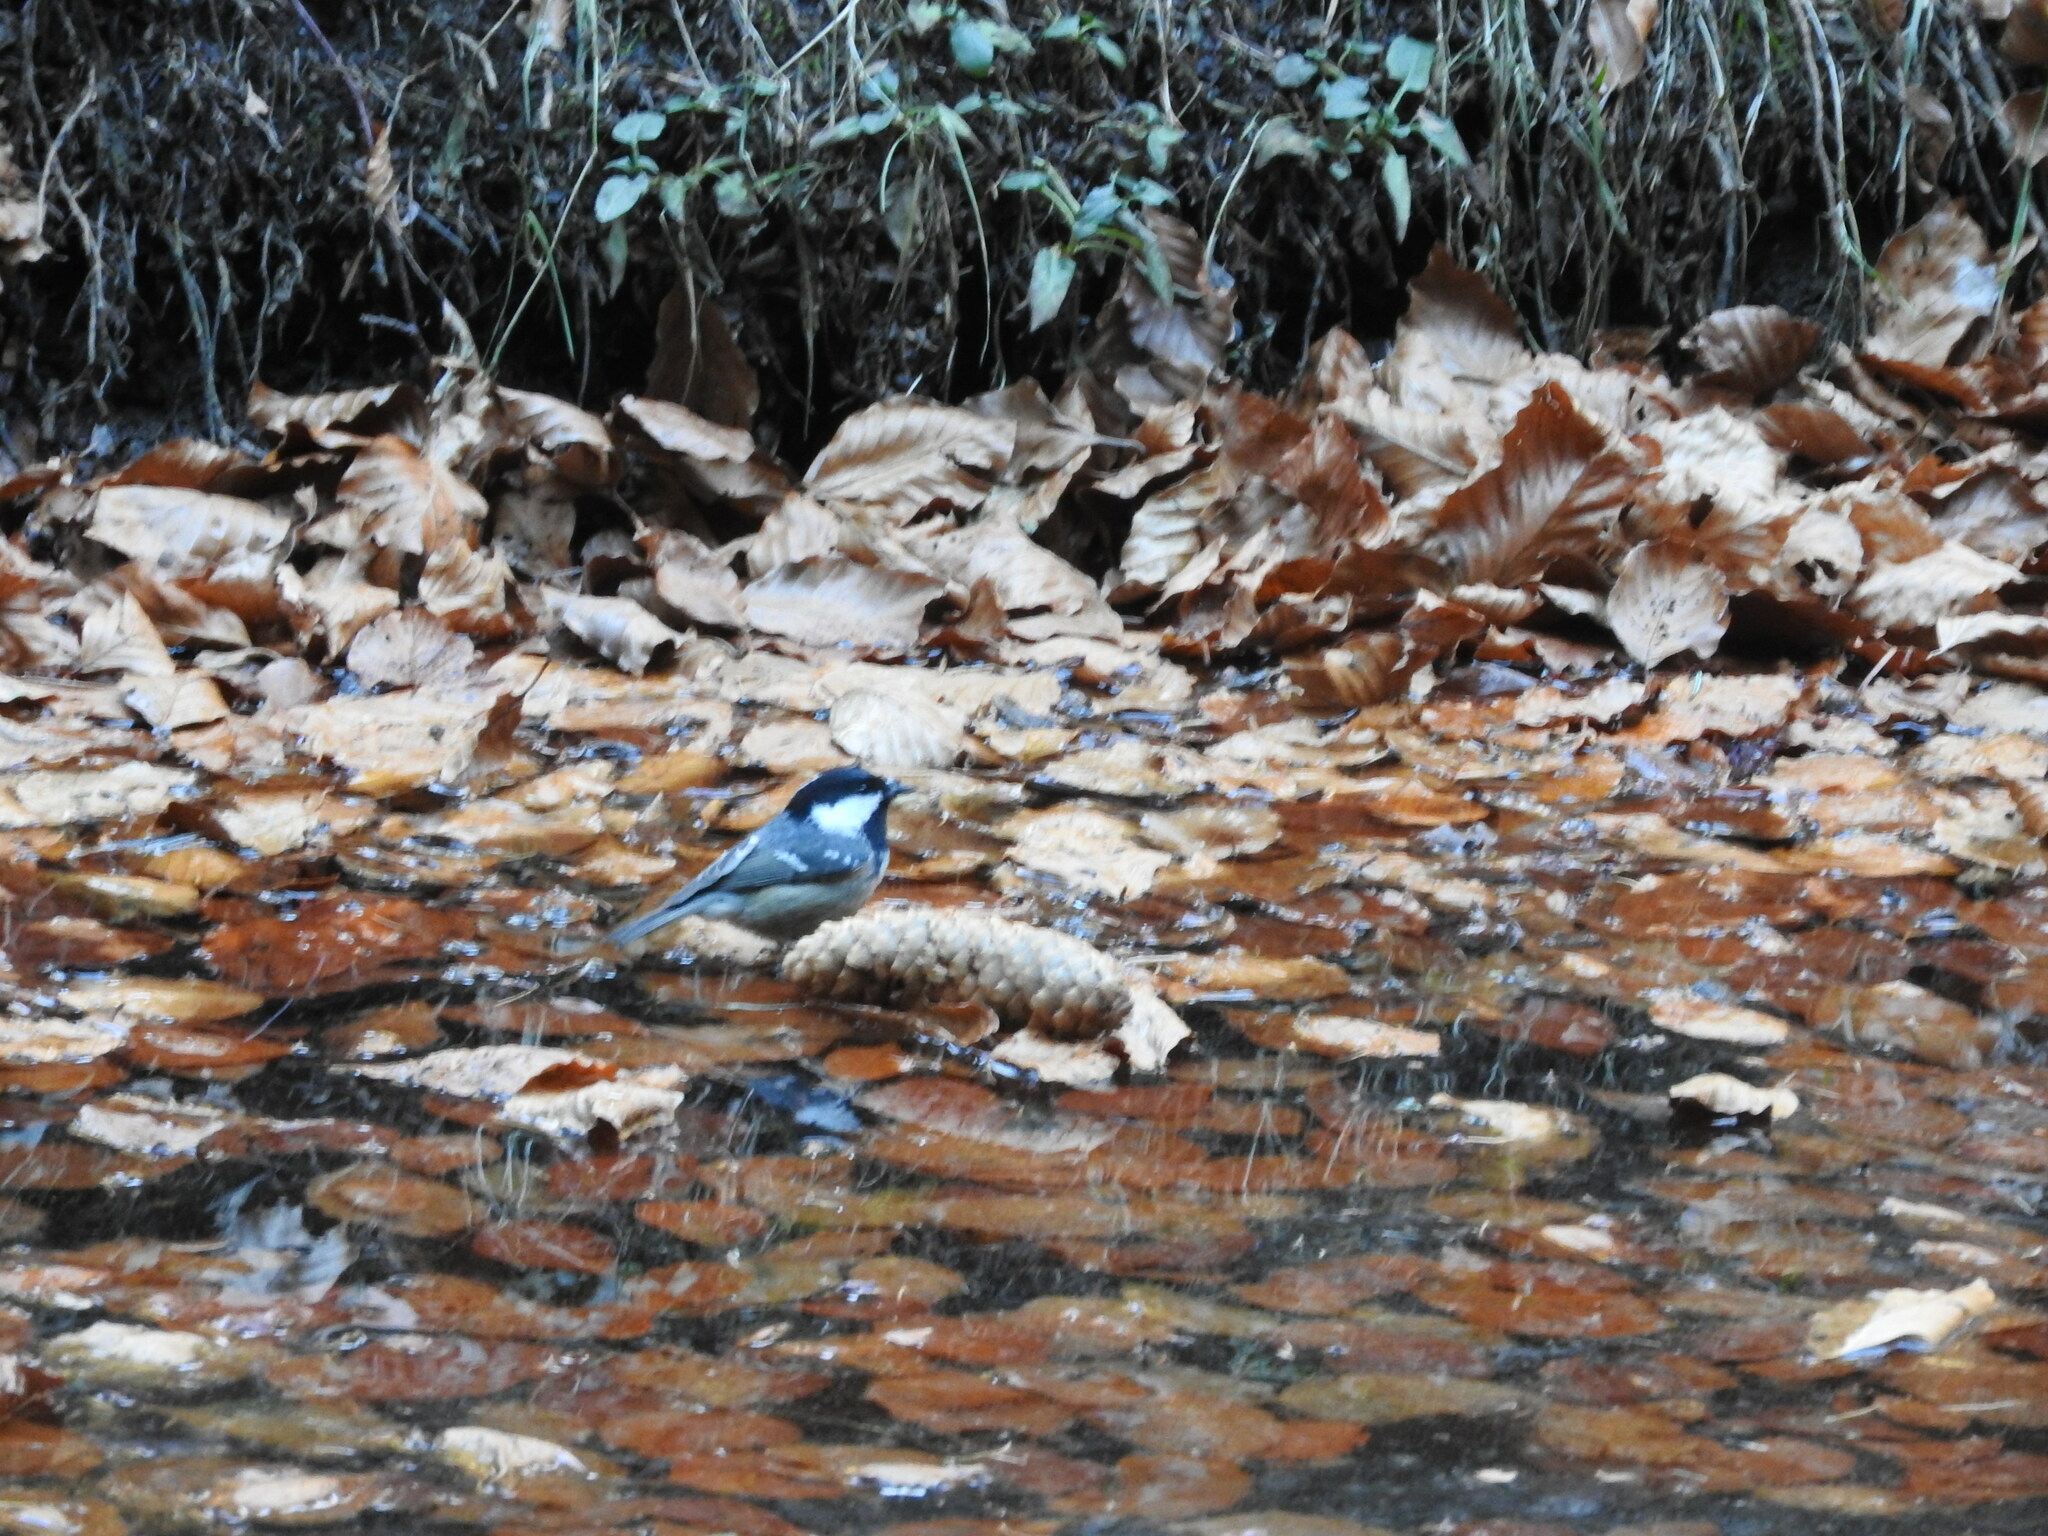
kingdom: Animalia
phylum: Chordata
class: Aves
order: Passeriformes
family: Paridae
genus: Periparus
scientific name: Periparus ater
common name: Coal tit
